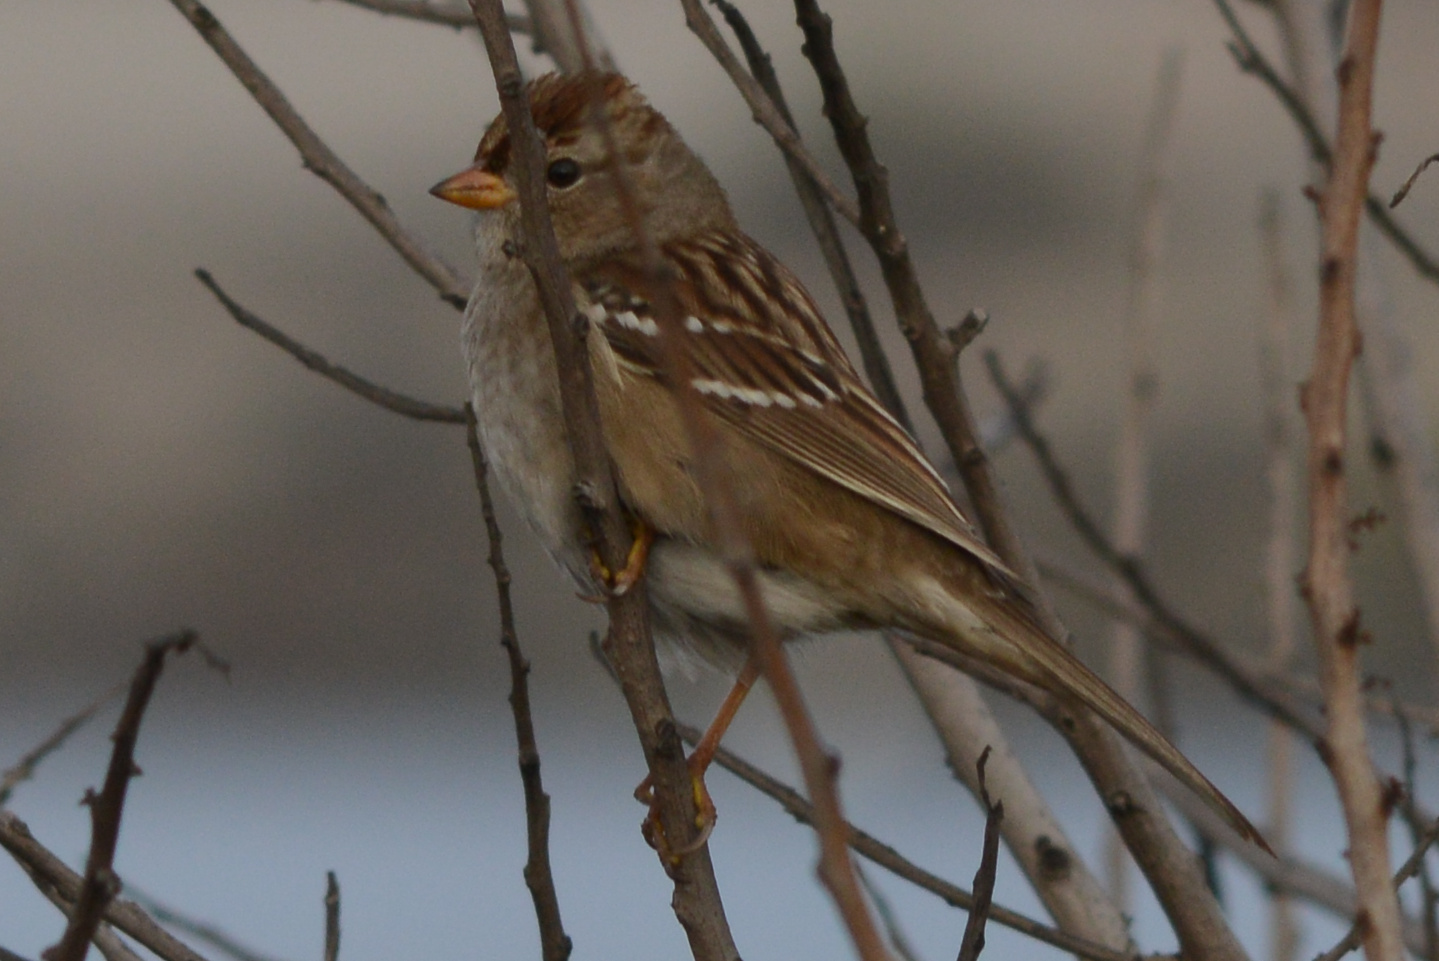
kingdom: Animalia
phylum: Chordata
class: Aves
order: Passeriformes
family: Passerellidae
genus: Zonotrichia
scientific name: Zonotrichia leucophrys
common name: White-crowned sparrow
